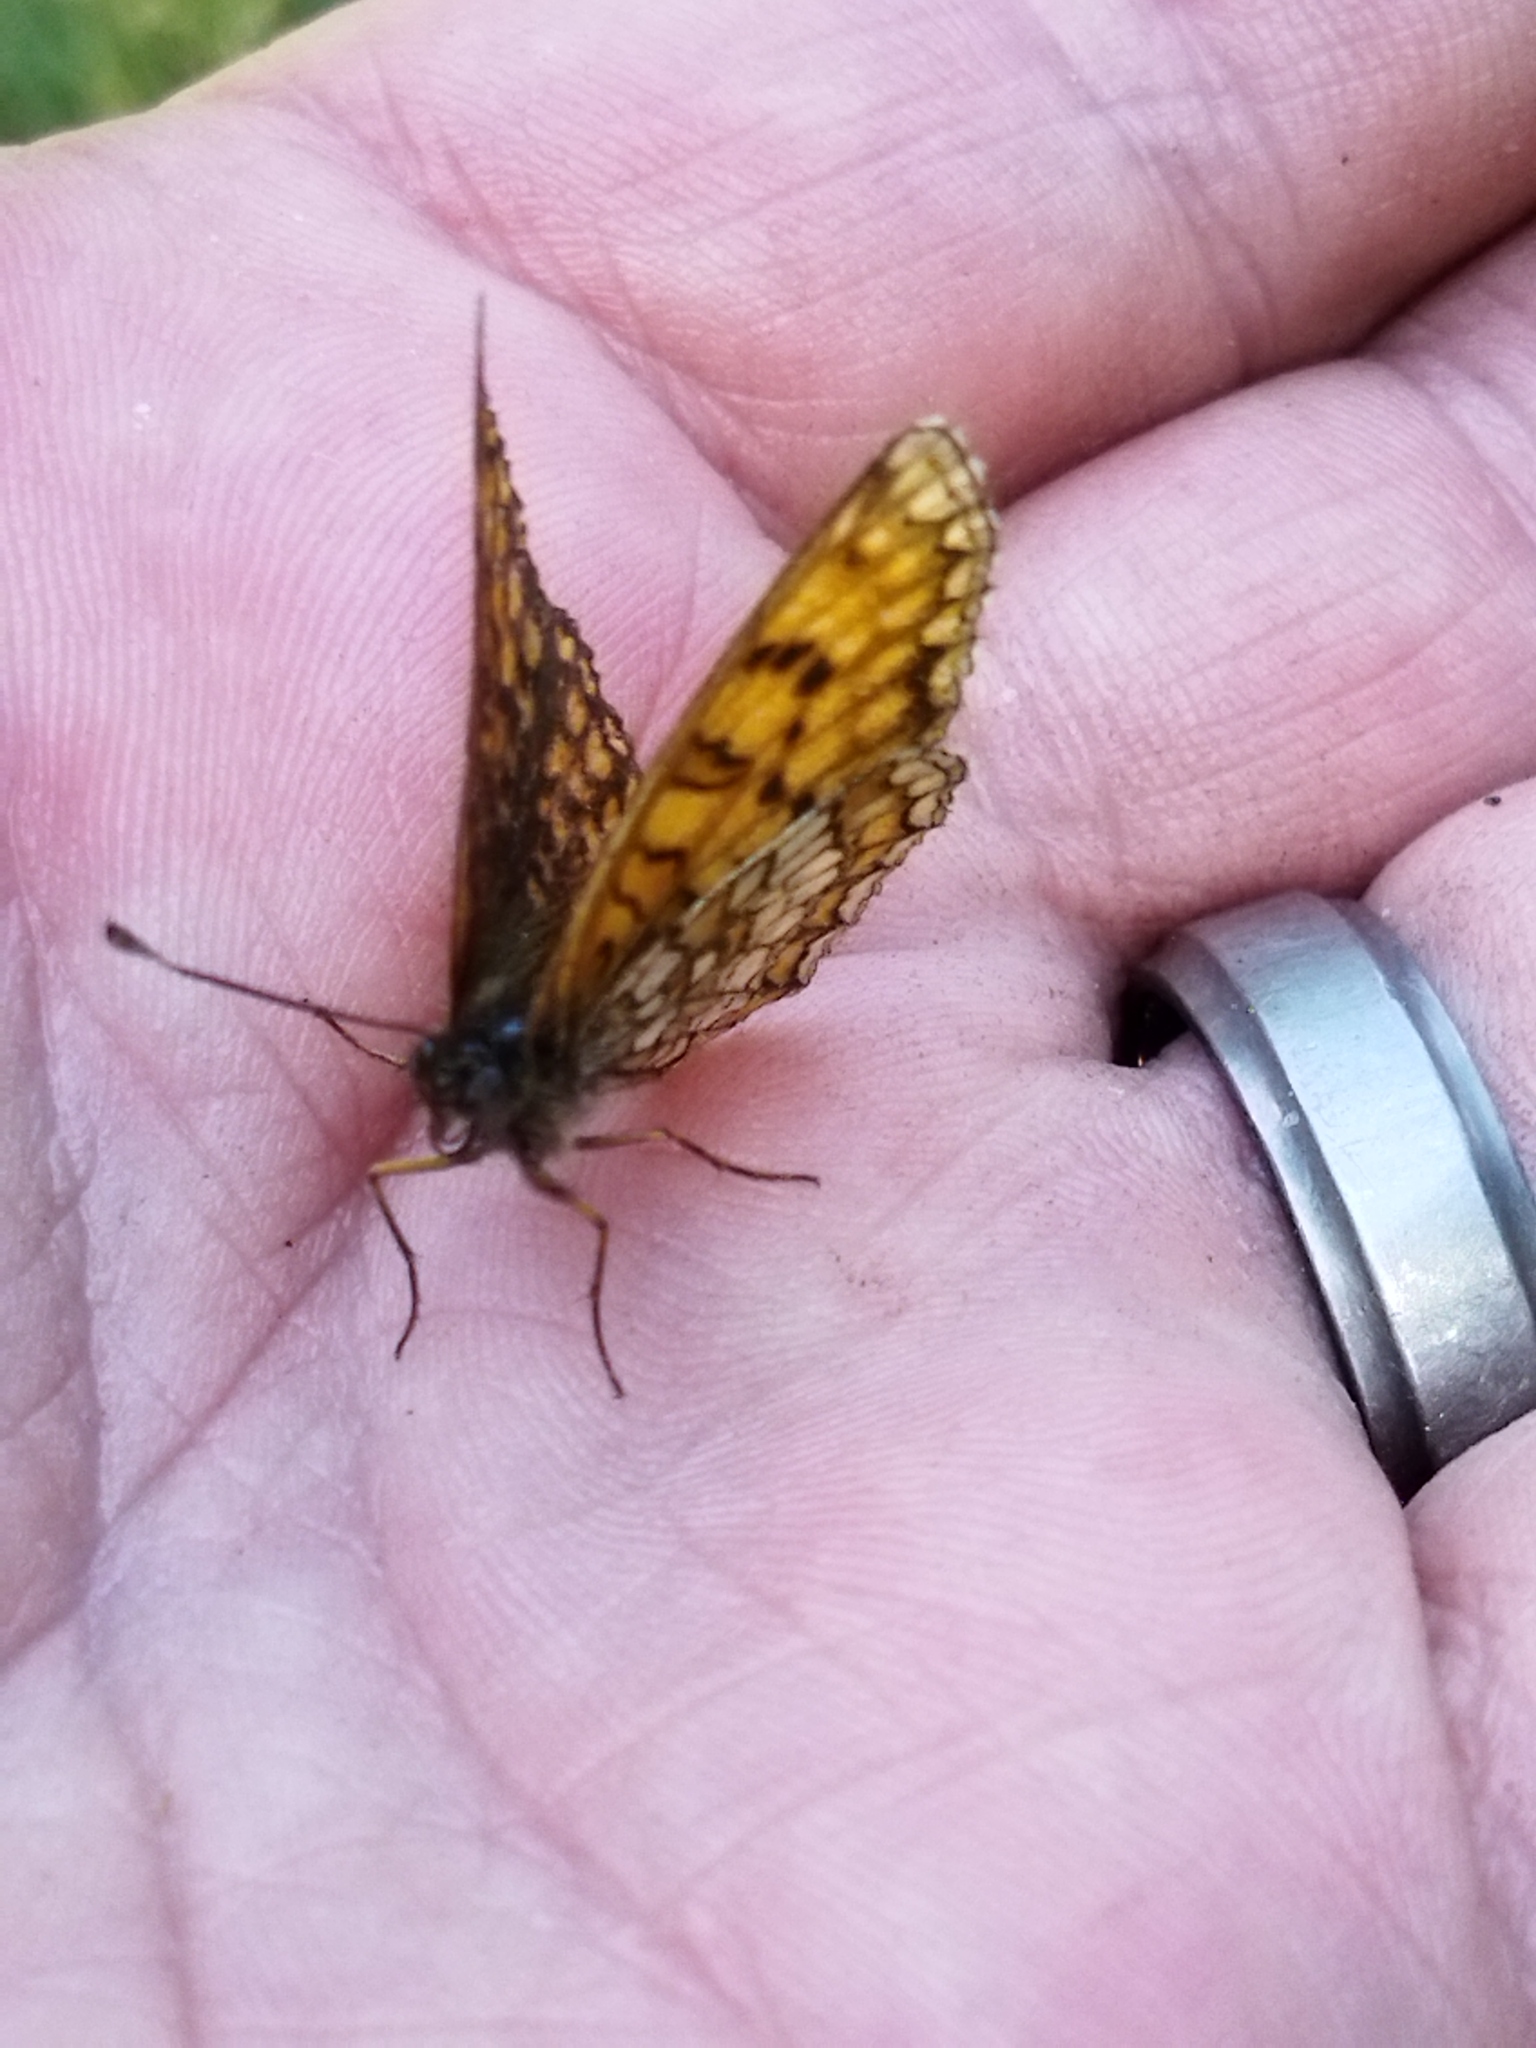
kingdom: Animalia
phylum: Arthropoda
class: Insecta
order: Lepidoptera
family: Nymphalidae
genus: Melitaea
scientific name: Melitaea athalia
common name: Heath fritillary
